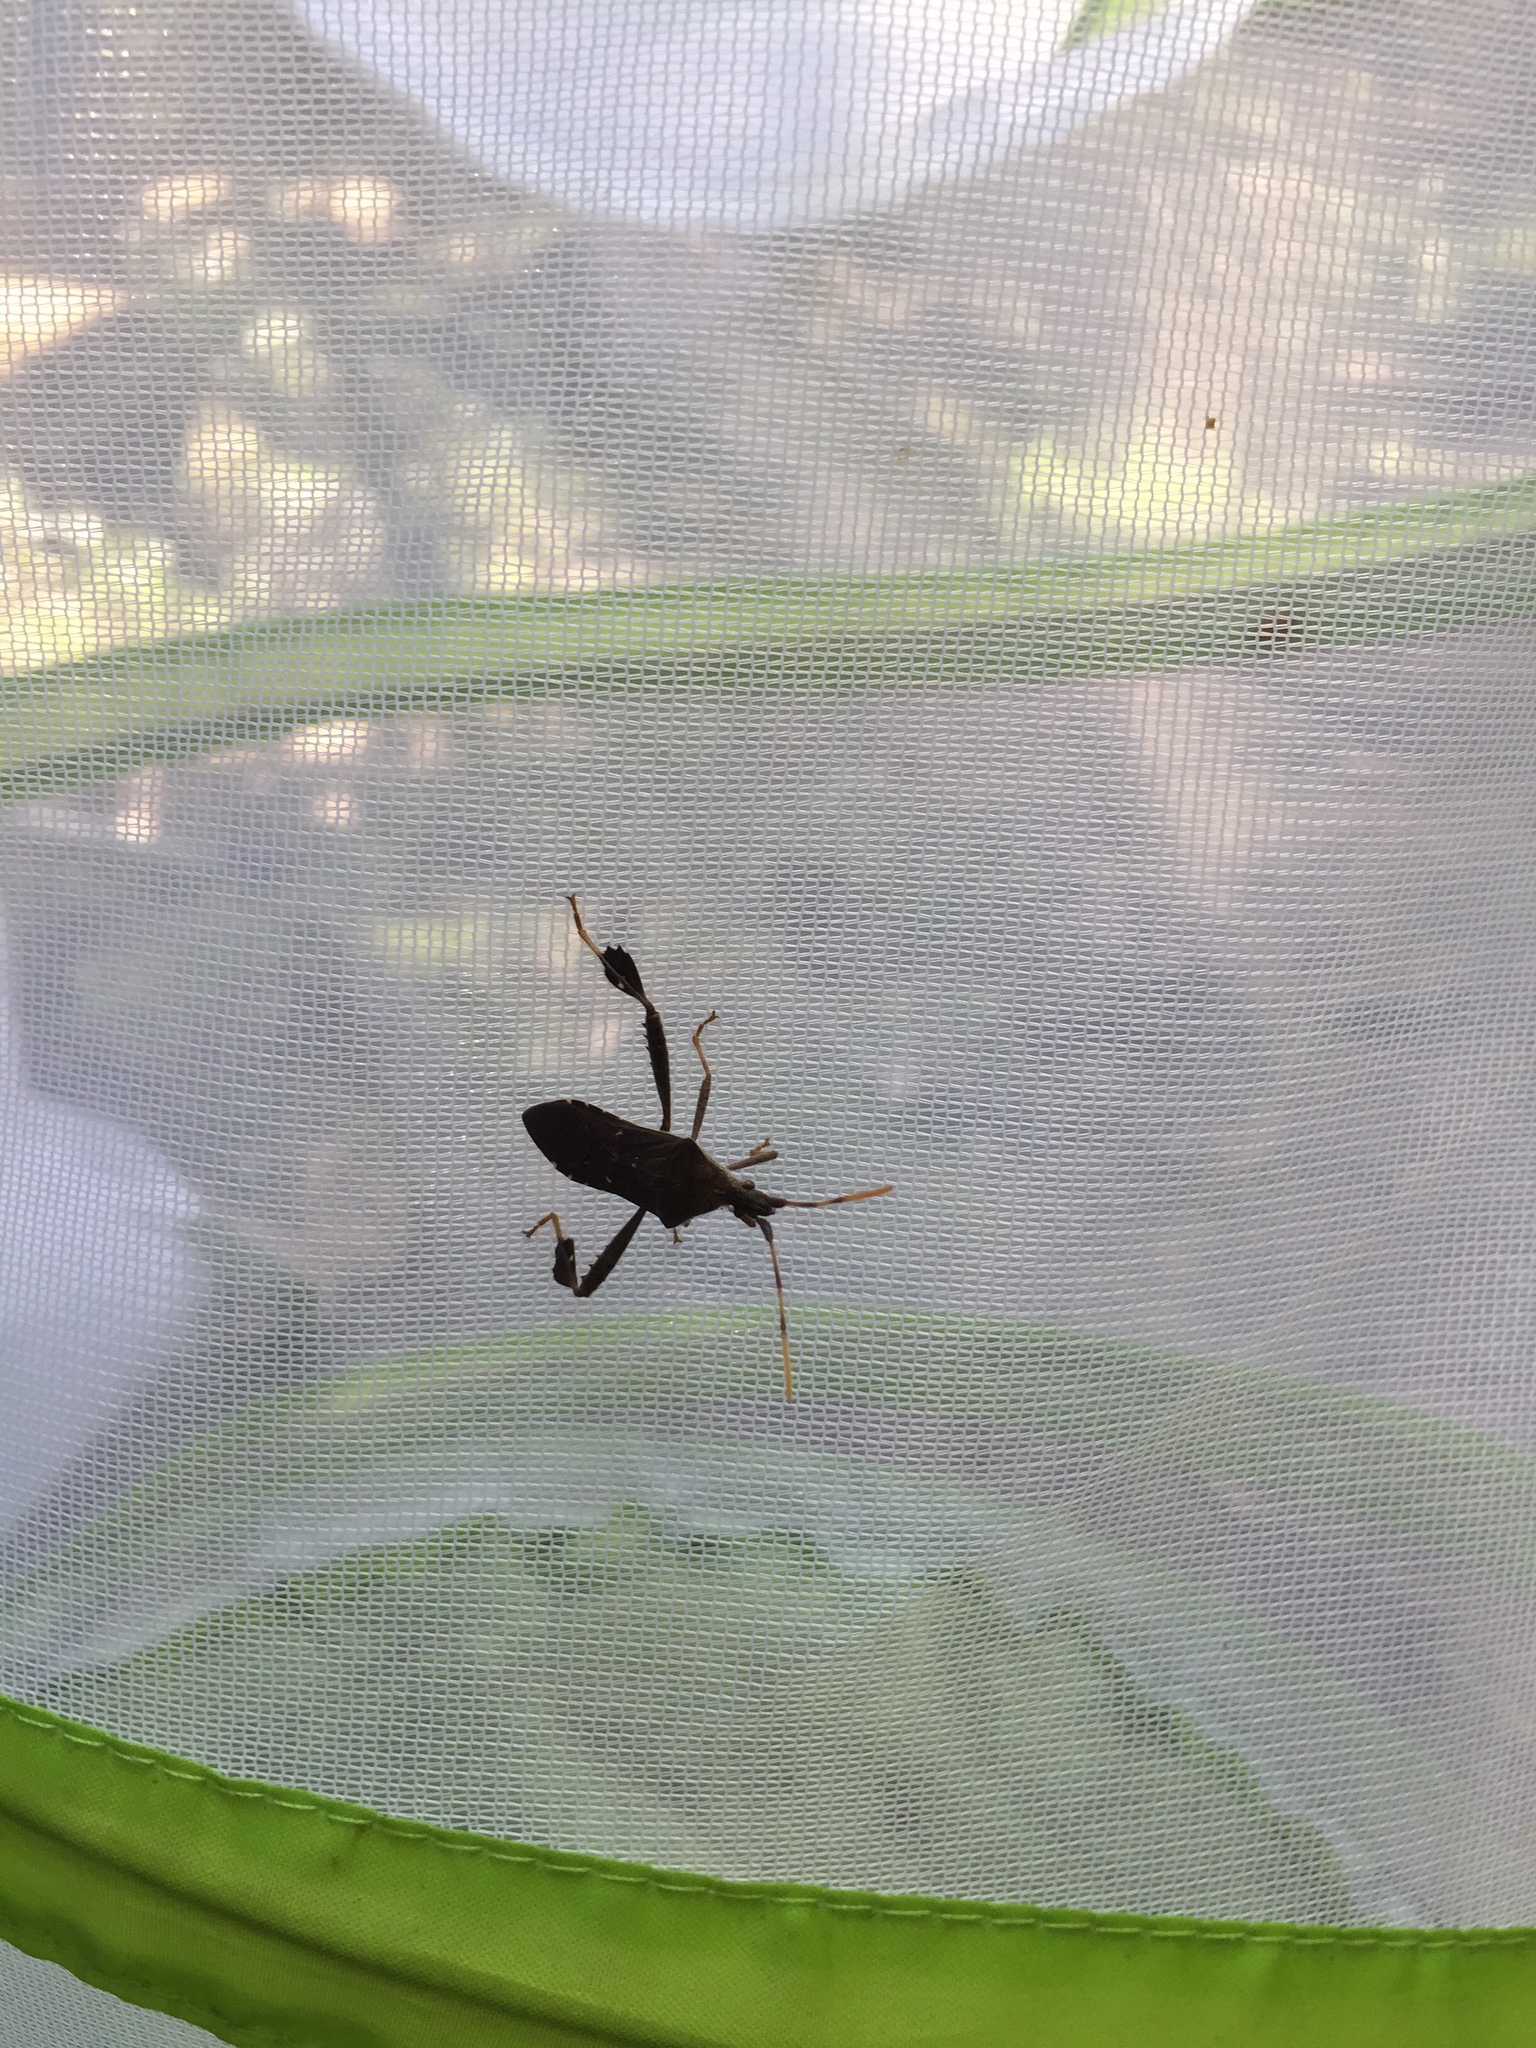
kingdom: Animalia
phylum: Arthropoda
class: Insecta
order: Hemiptera
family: Coreidae
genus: Leptoglossus
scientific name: Leptoglossus oppositus
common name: Northern leaf-footed bug
